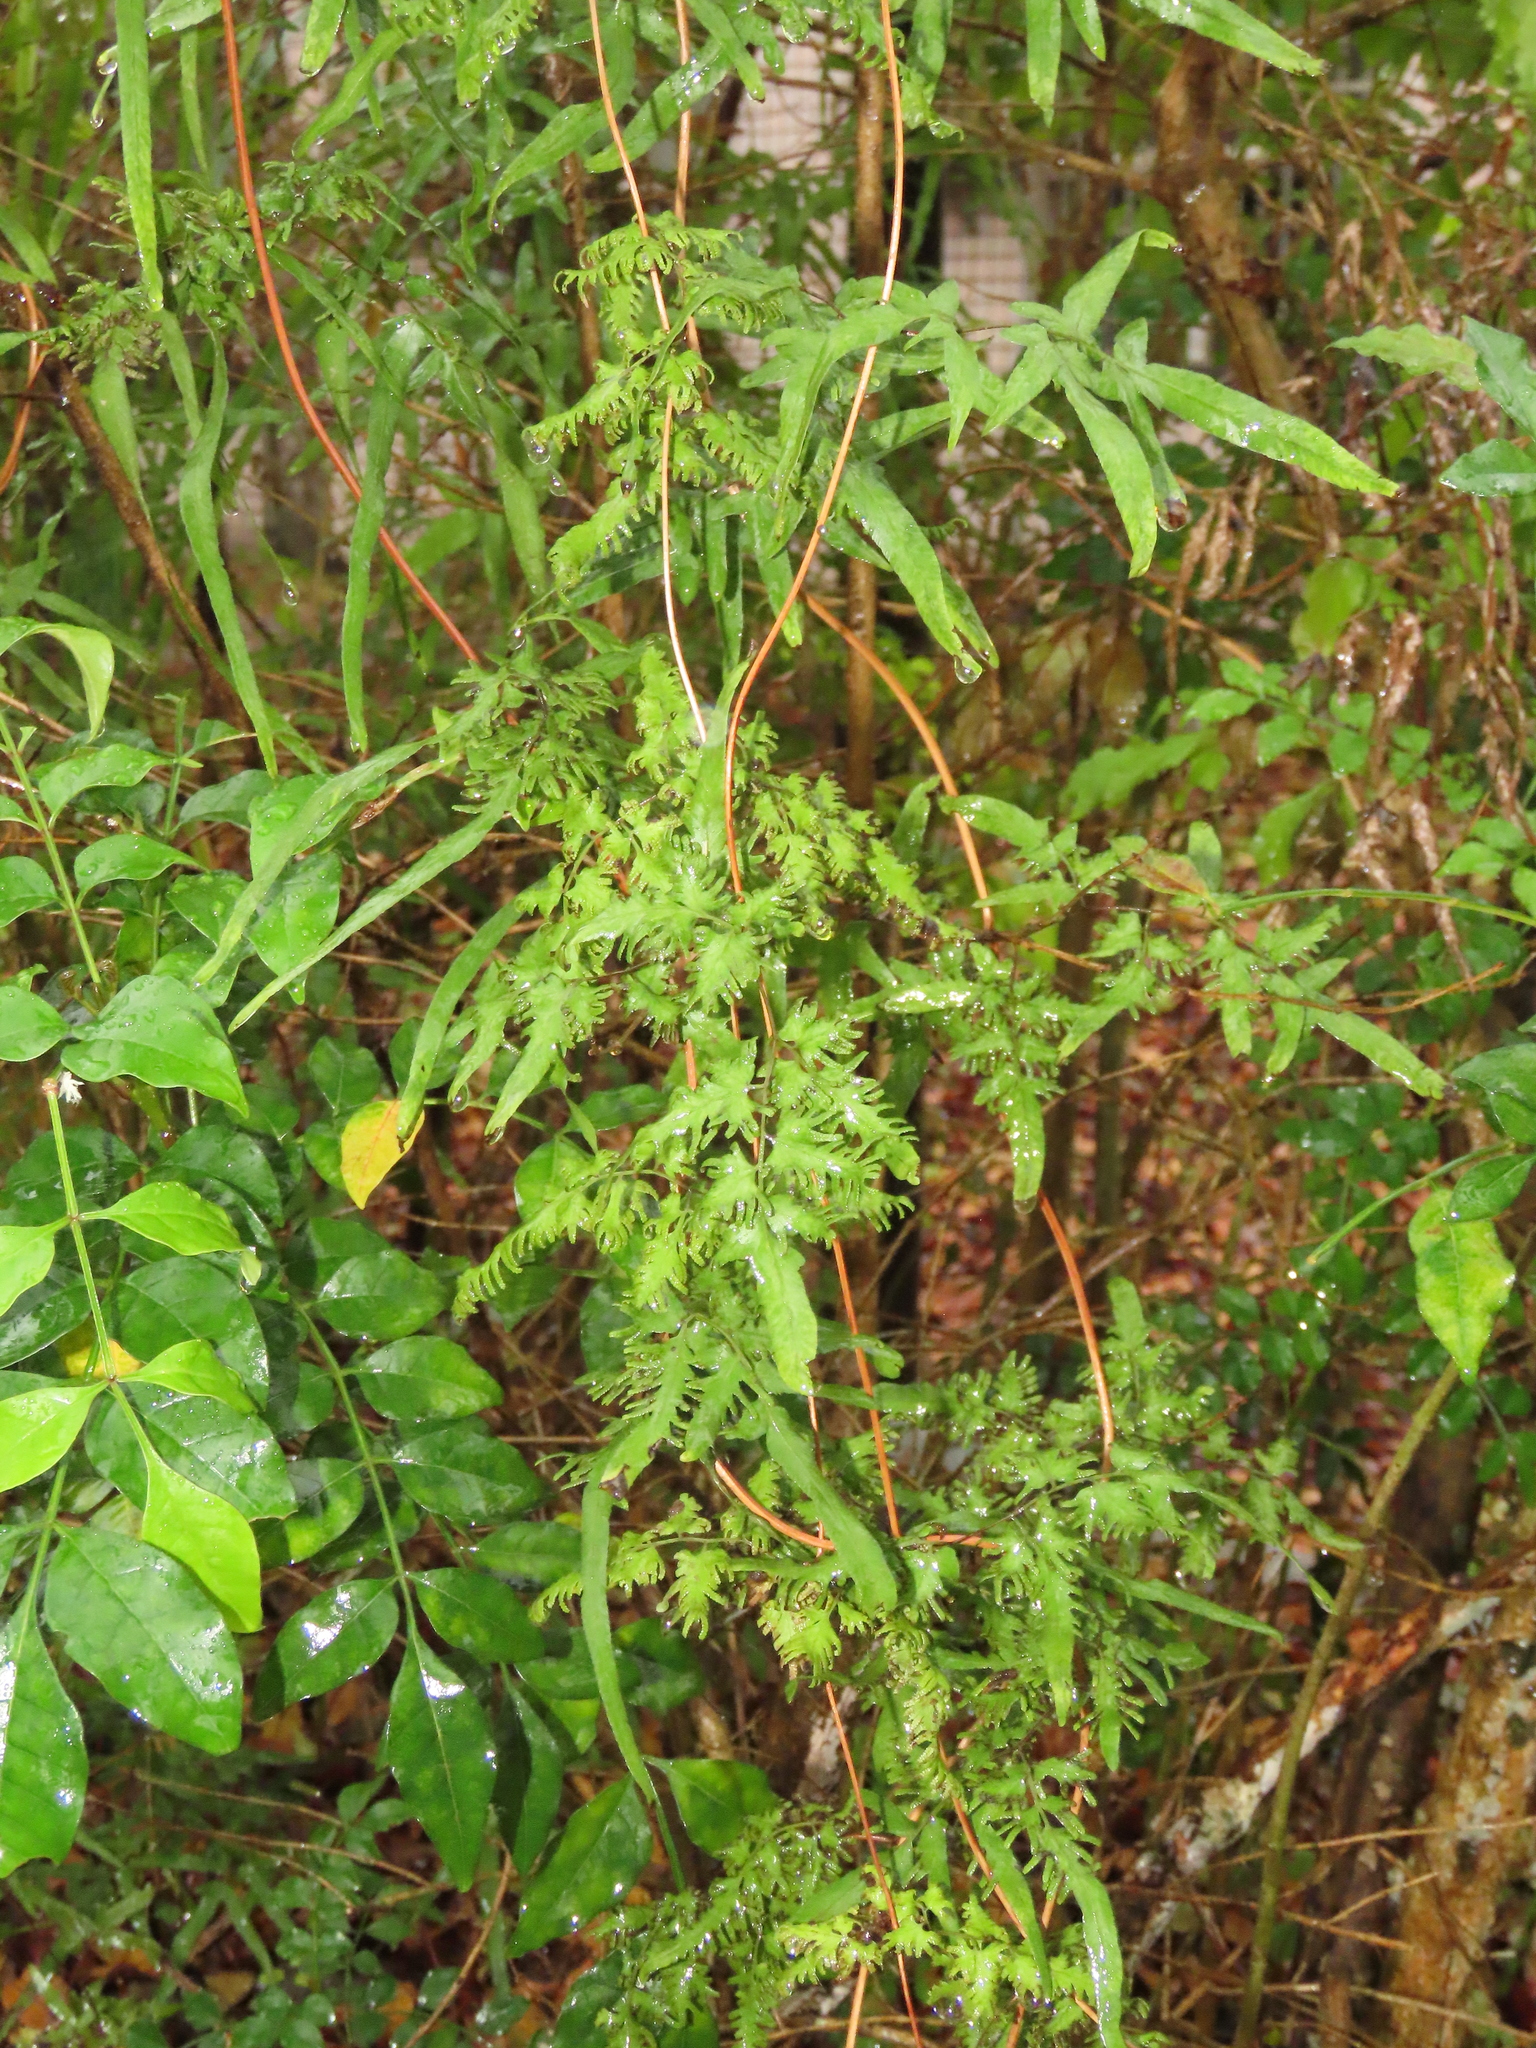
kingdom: Plantae
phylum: Tracheophyta
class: Polypodiopsida
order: Schizaeales
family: Lygodiaceae
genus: Lygodium
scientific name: Lygodium japonicum
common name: Japanese climbing fern
